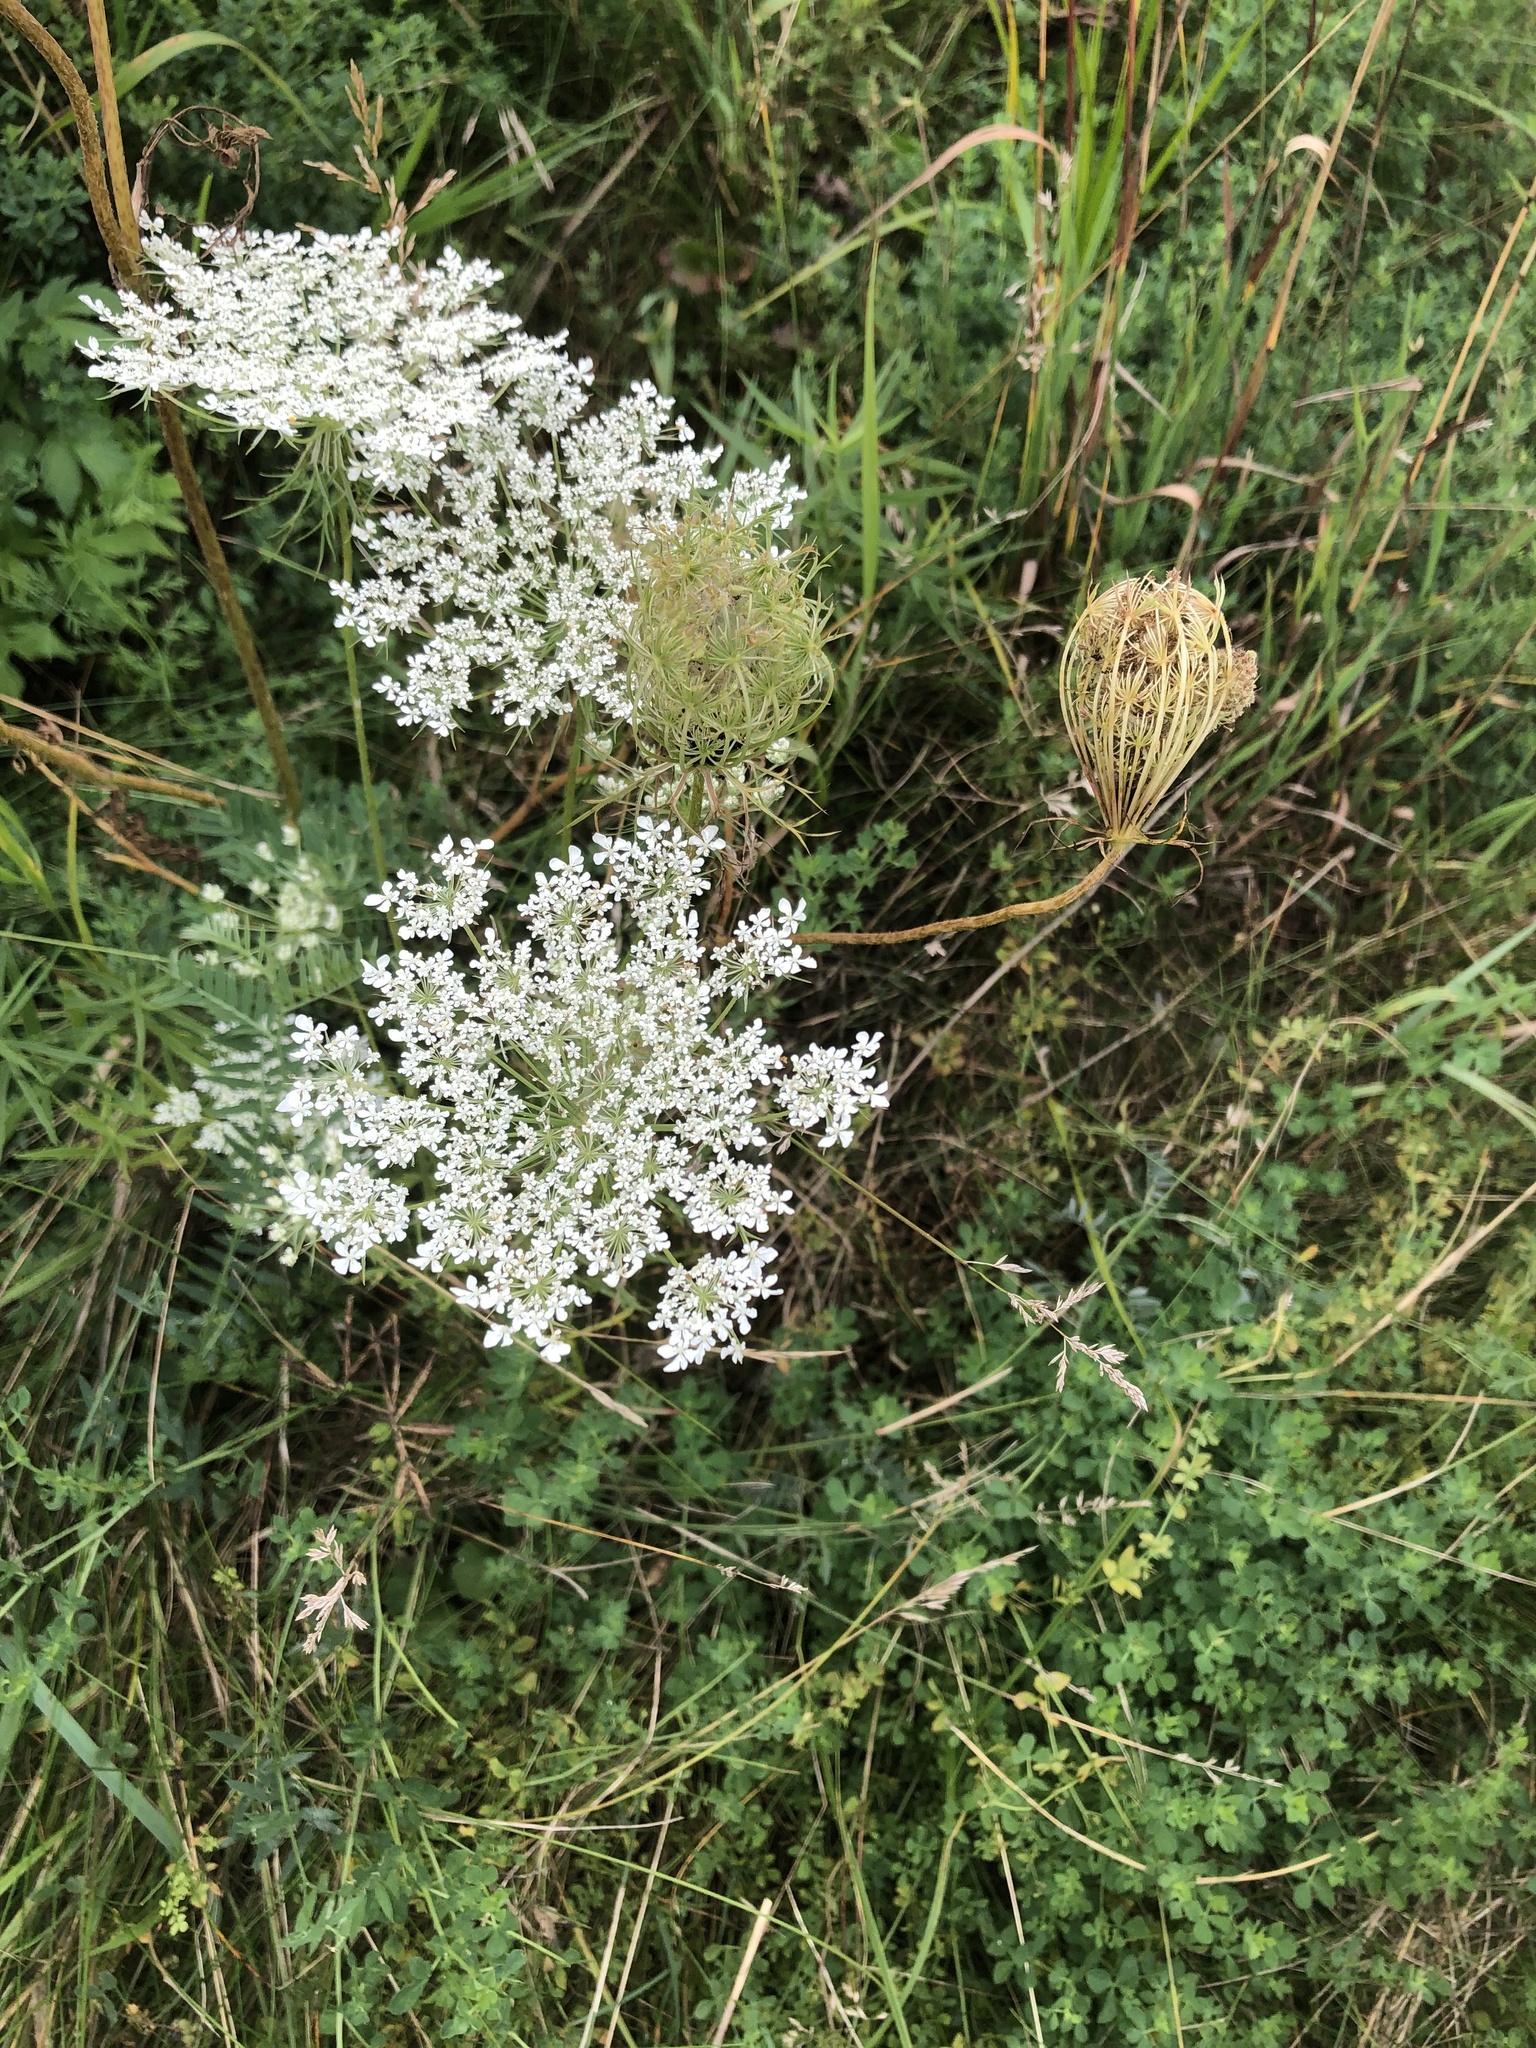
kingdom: Plantae
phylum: Tracheophyta
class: Magnoliopsida
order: Apiales
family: Apiaceae
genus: Daucus
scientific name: Daucus carota
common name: Wild carrot
